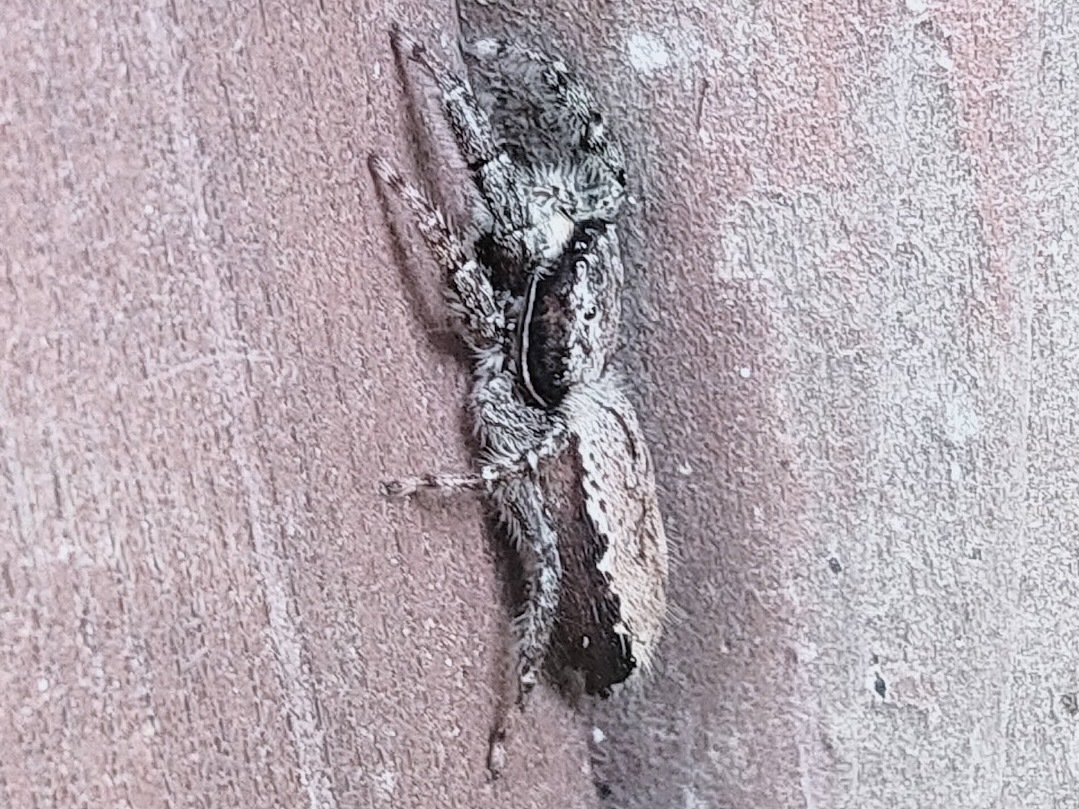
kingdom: Animalia
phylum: Arthropoda
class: Arachnida
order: Araneae
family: Salticidae
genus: Marpissa
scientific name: Marpissa milleri
